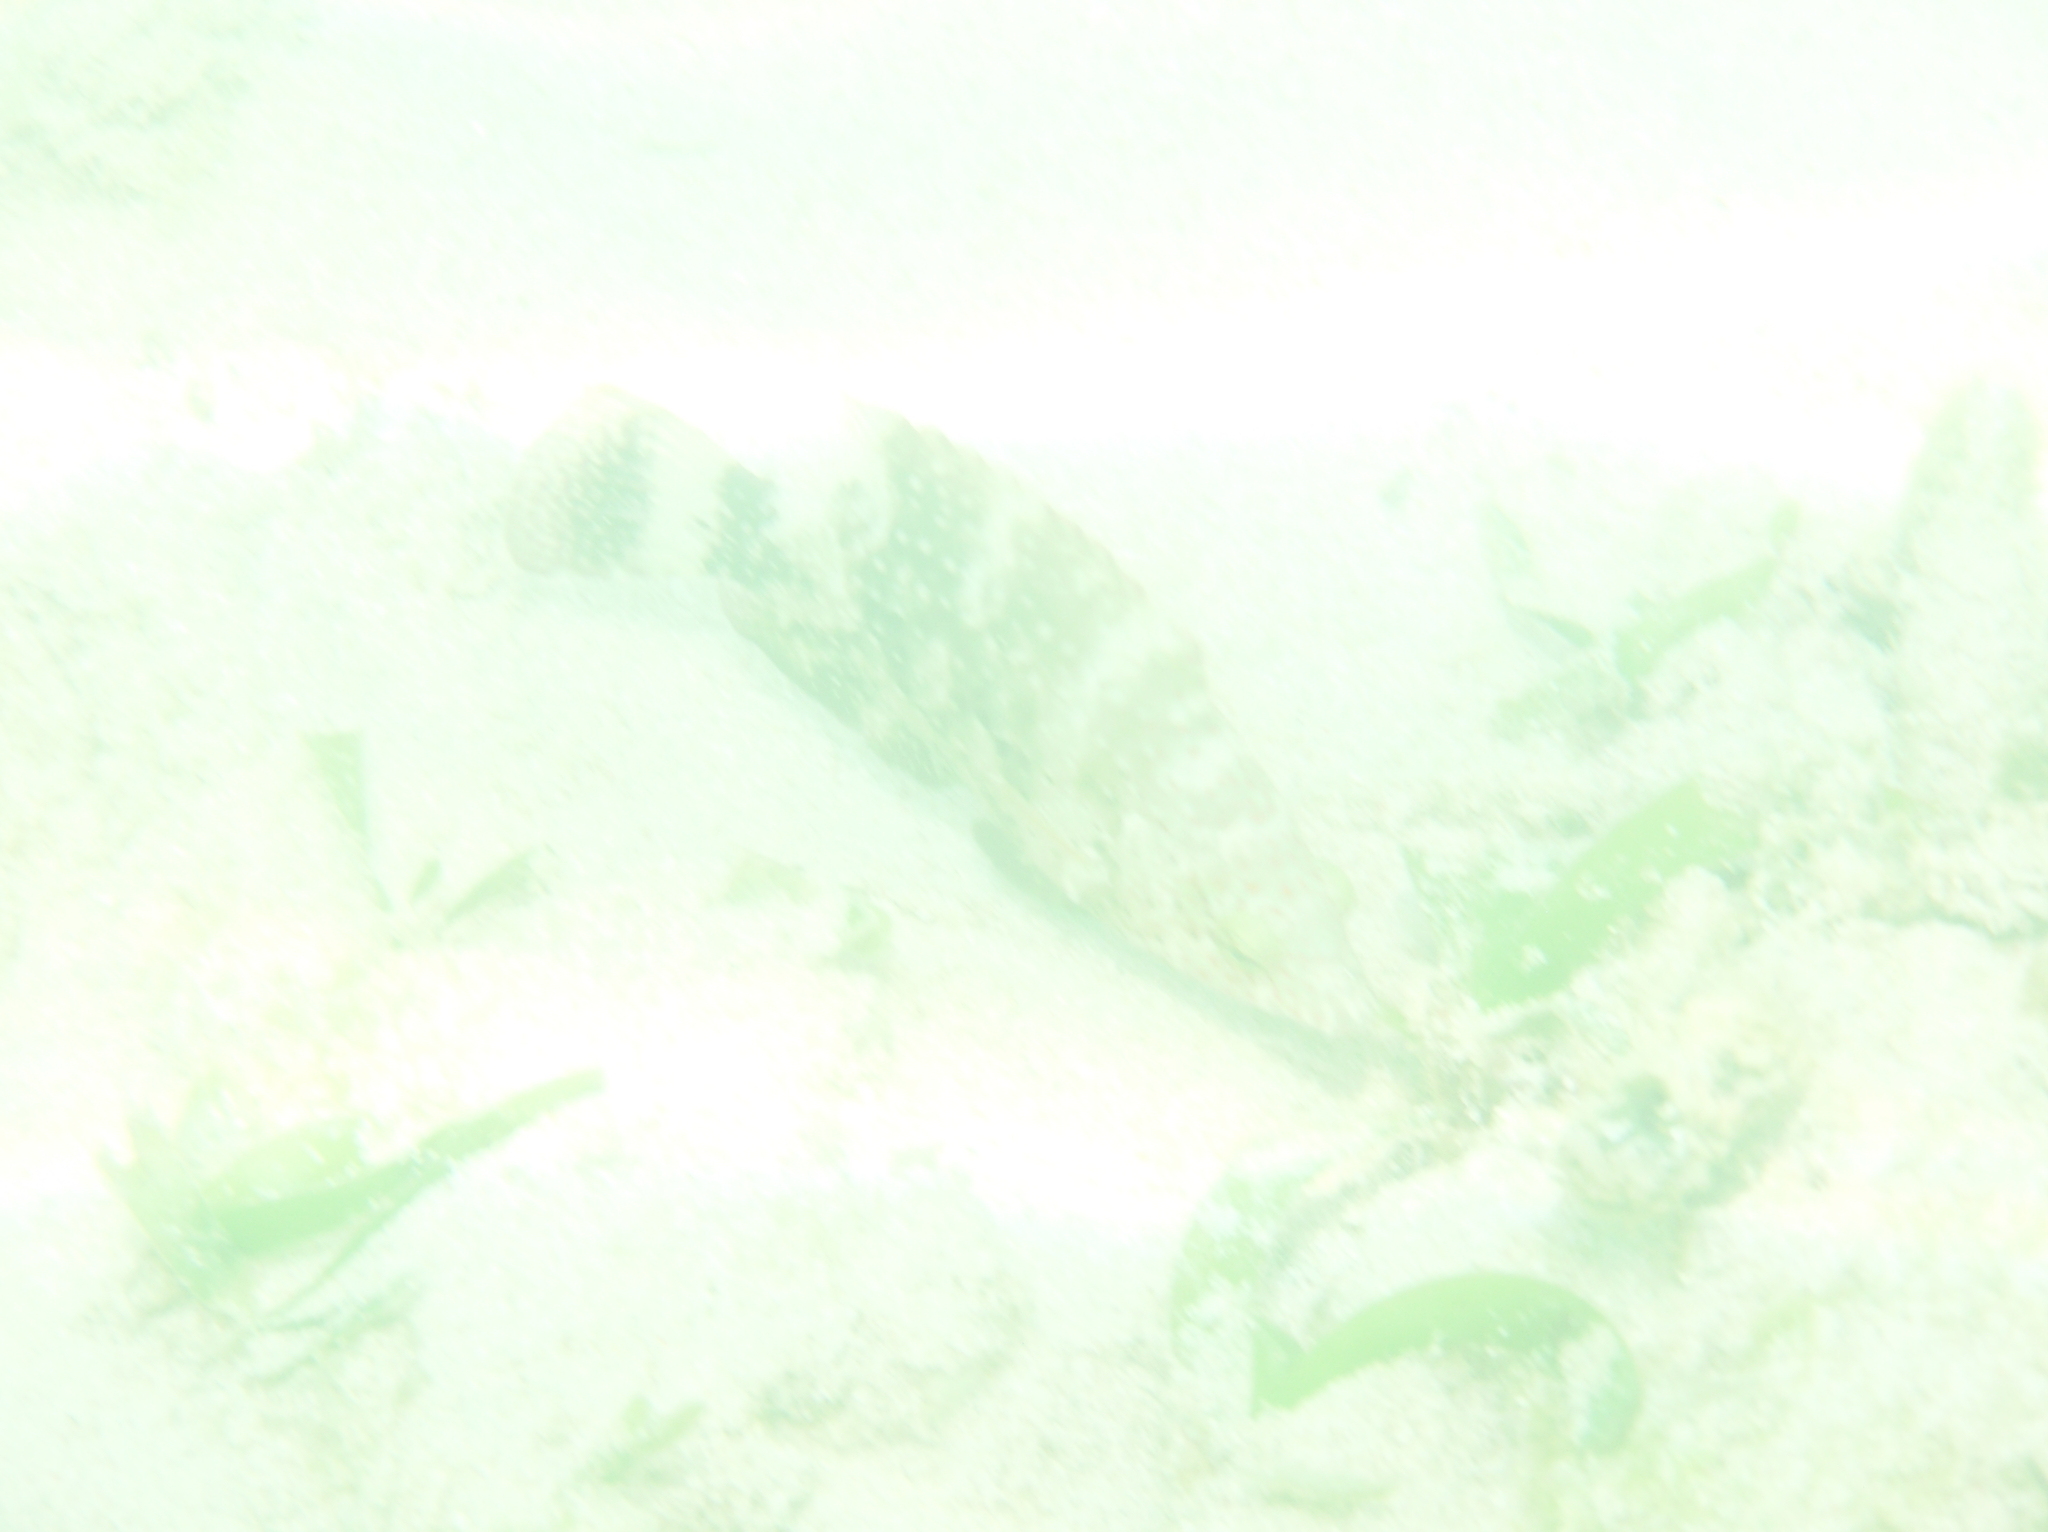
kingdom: Animalia
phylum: Chordata
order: Perciformes
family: Labridae
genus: Cheilinus
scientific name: Cheilinus chlorourus
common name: Floral wrasse
